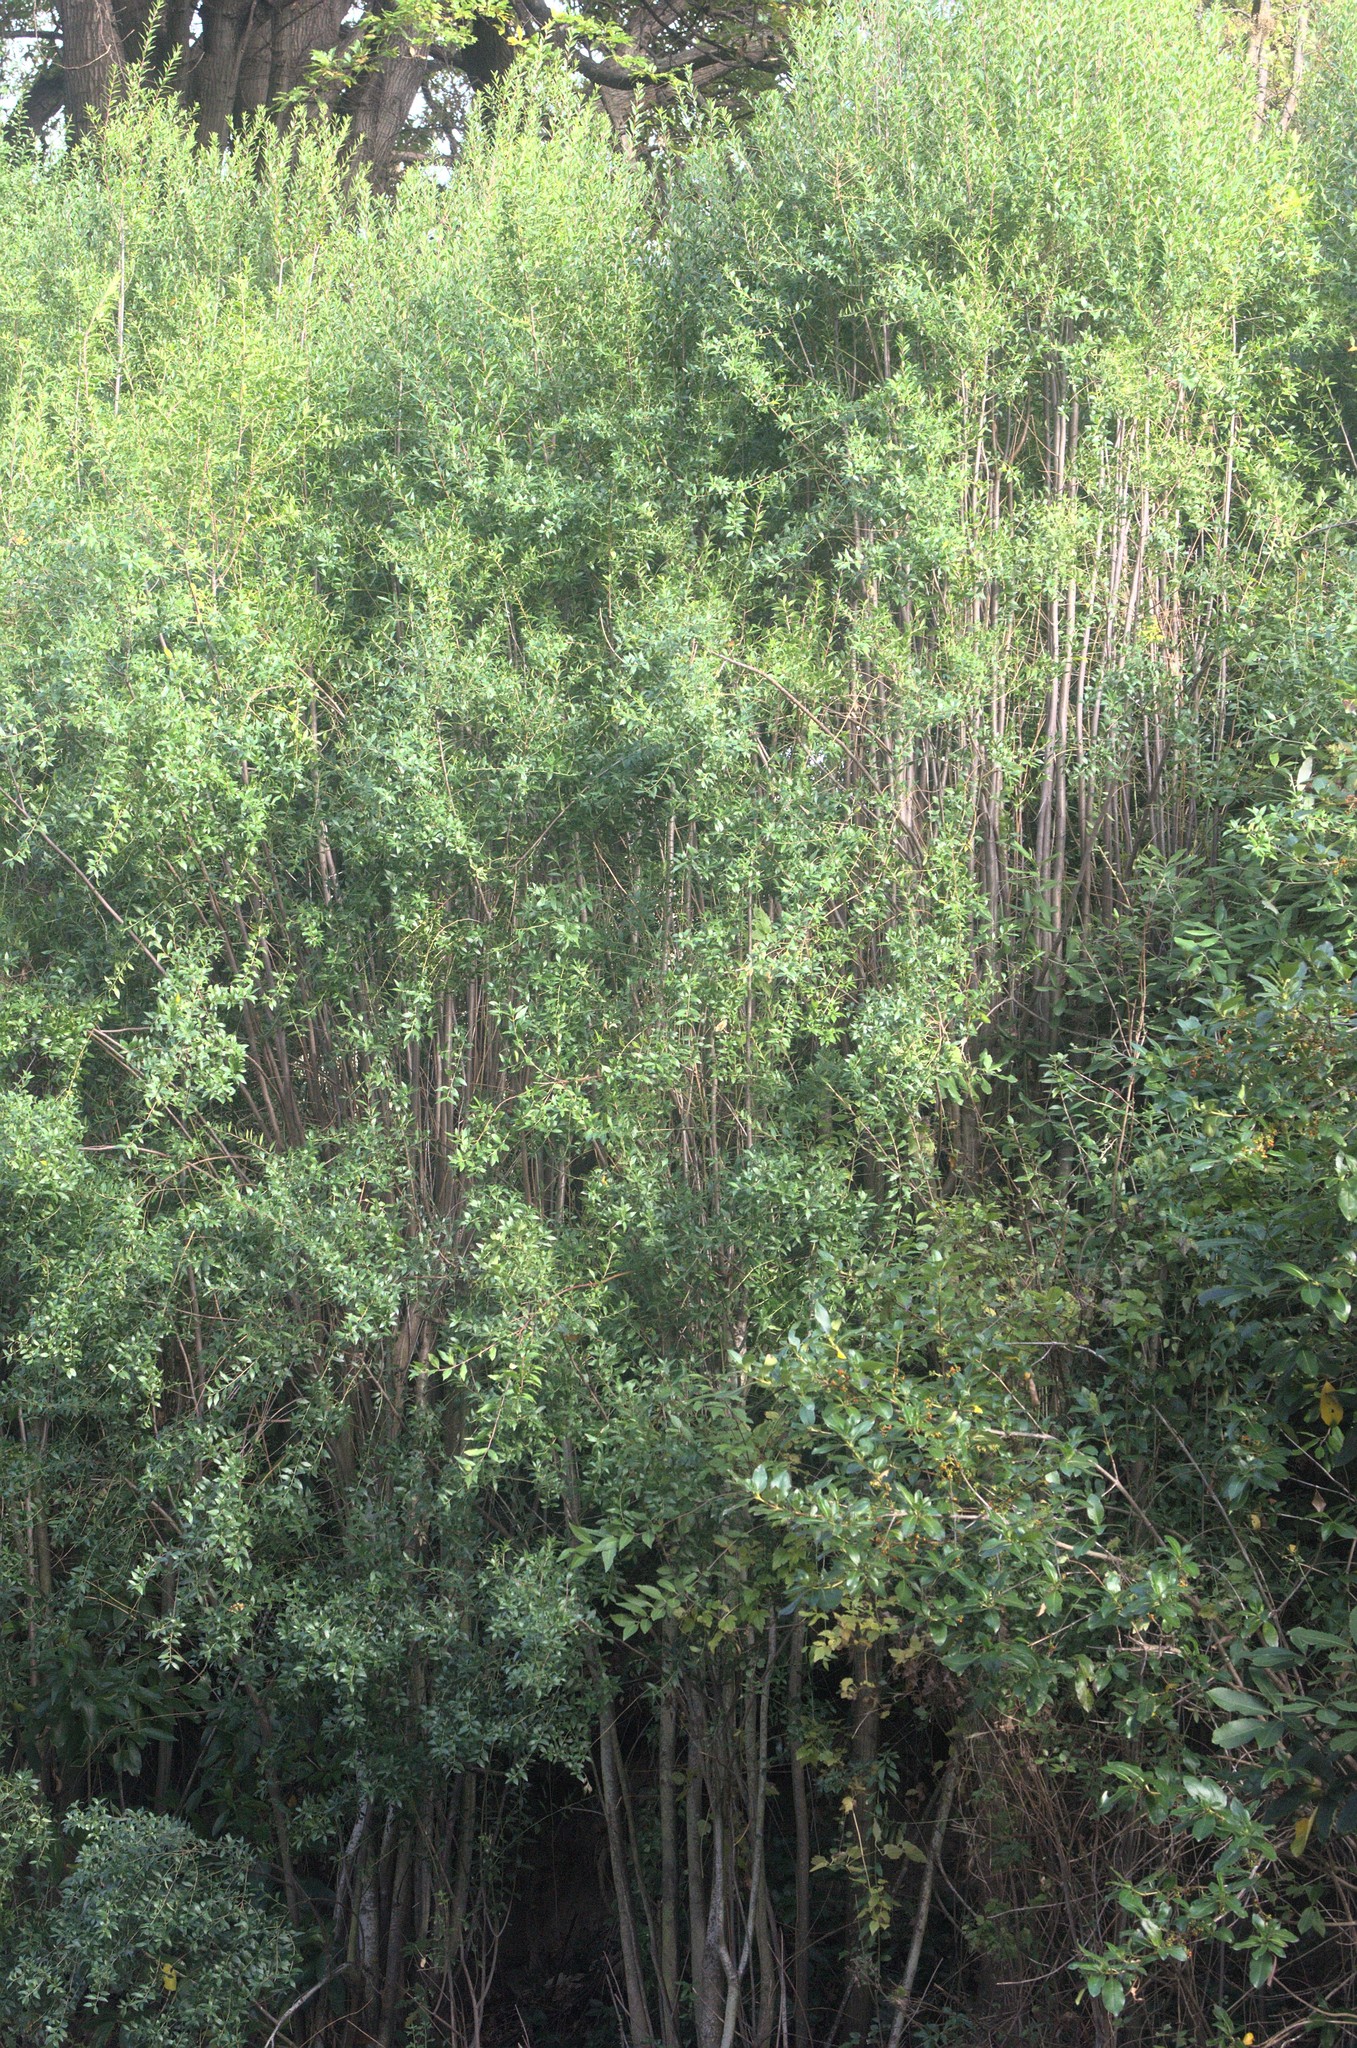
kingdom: Plantae
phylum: Tracheophyta
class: Magnoliopsida
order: Celastrales
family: Celastraceae
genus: Maytenus
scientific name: Maytenus boaria
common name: Mayten
